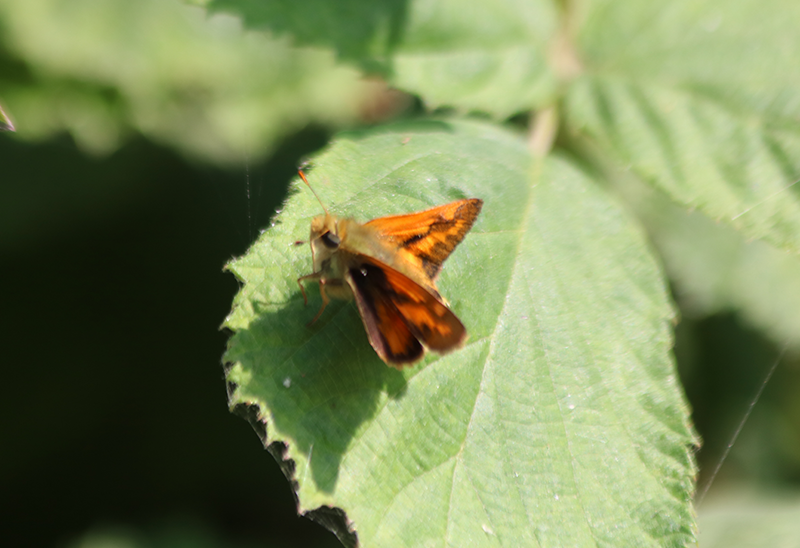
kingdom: Animalia
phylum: Arthropoda
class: Insecta
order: Lepidoptera
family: Hesperiidae
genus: Ochlodes
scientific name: Ochlodes sylvanoides
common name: Woodland skipper
